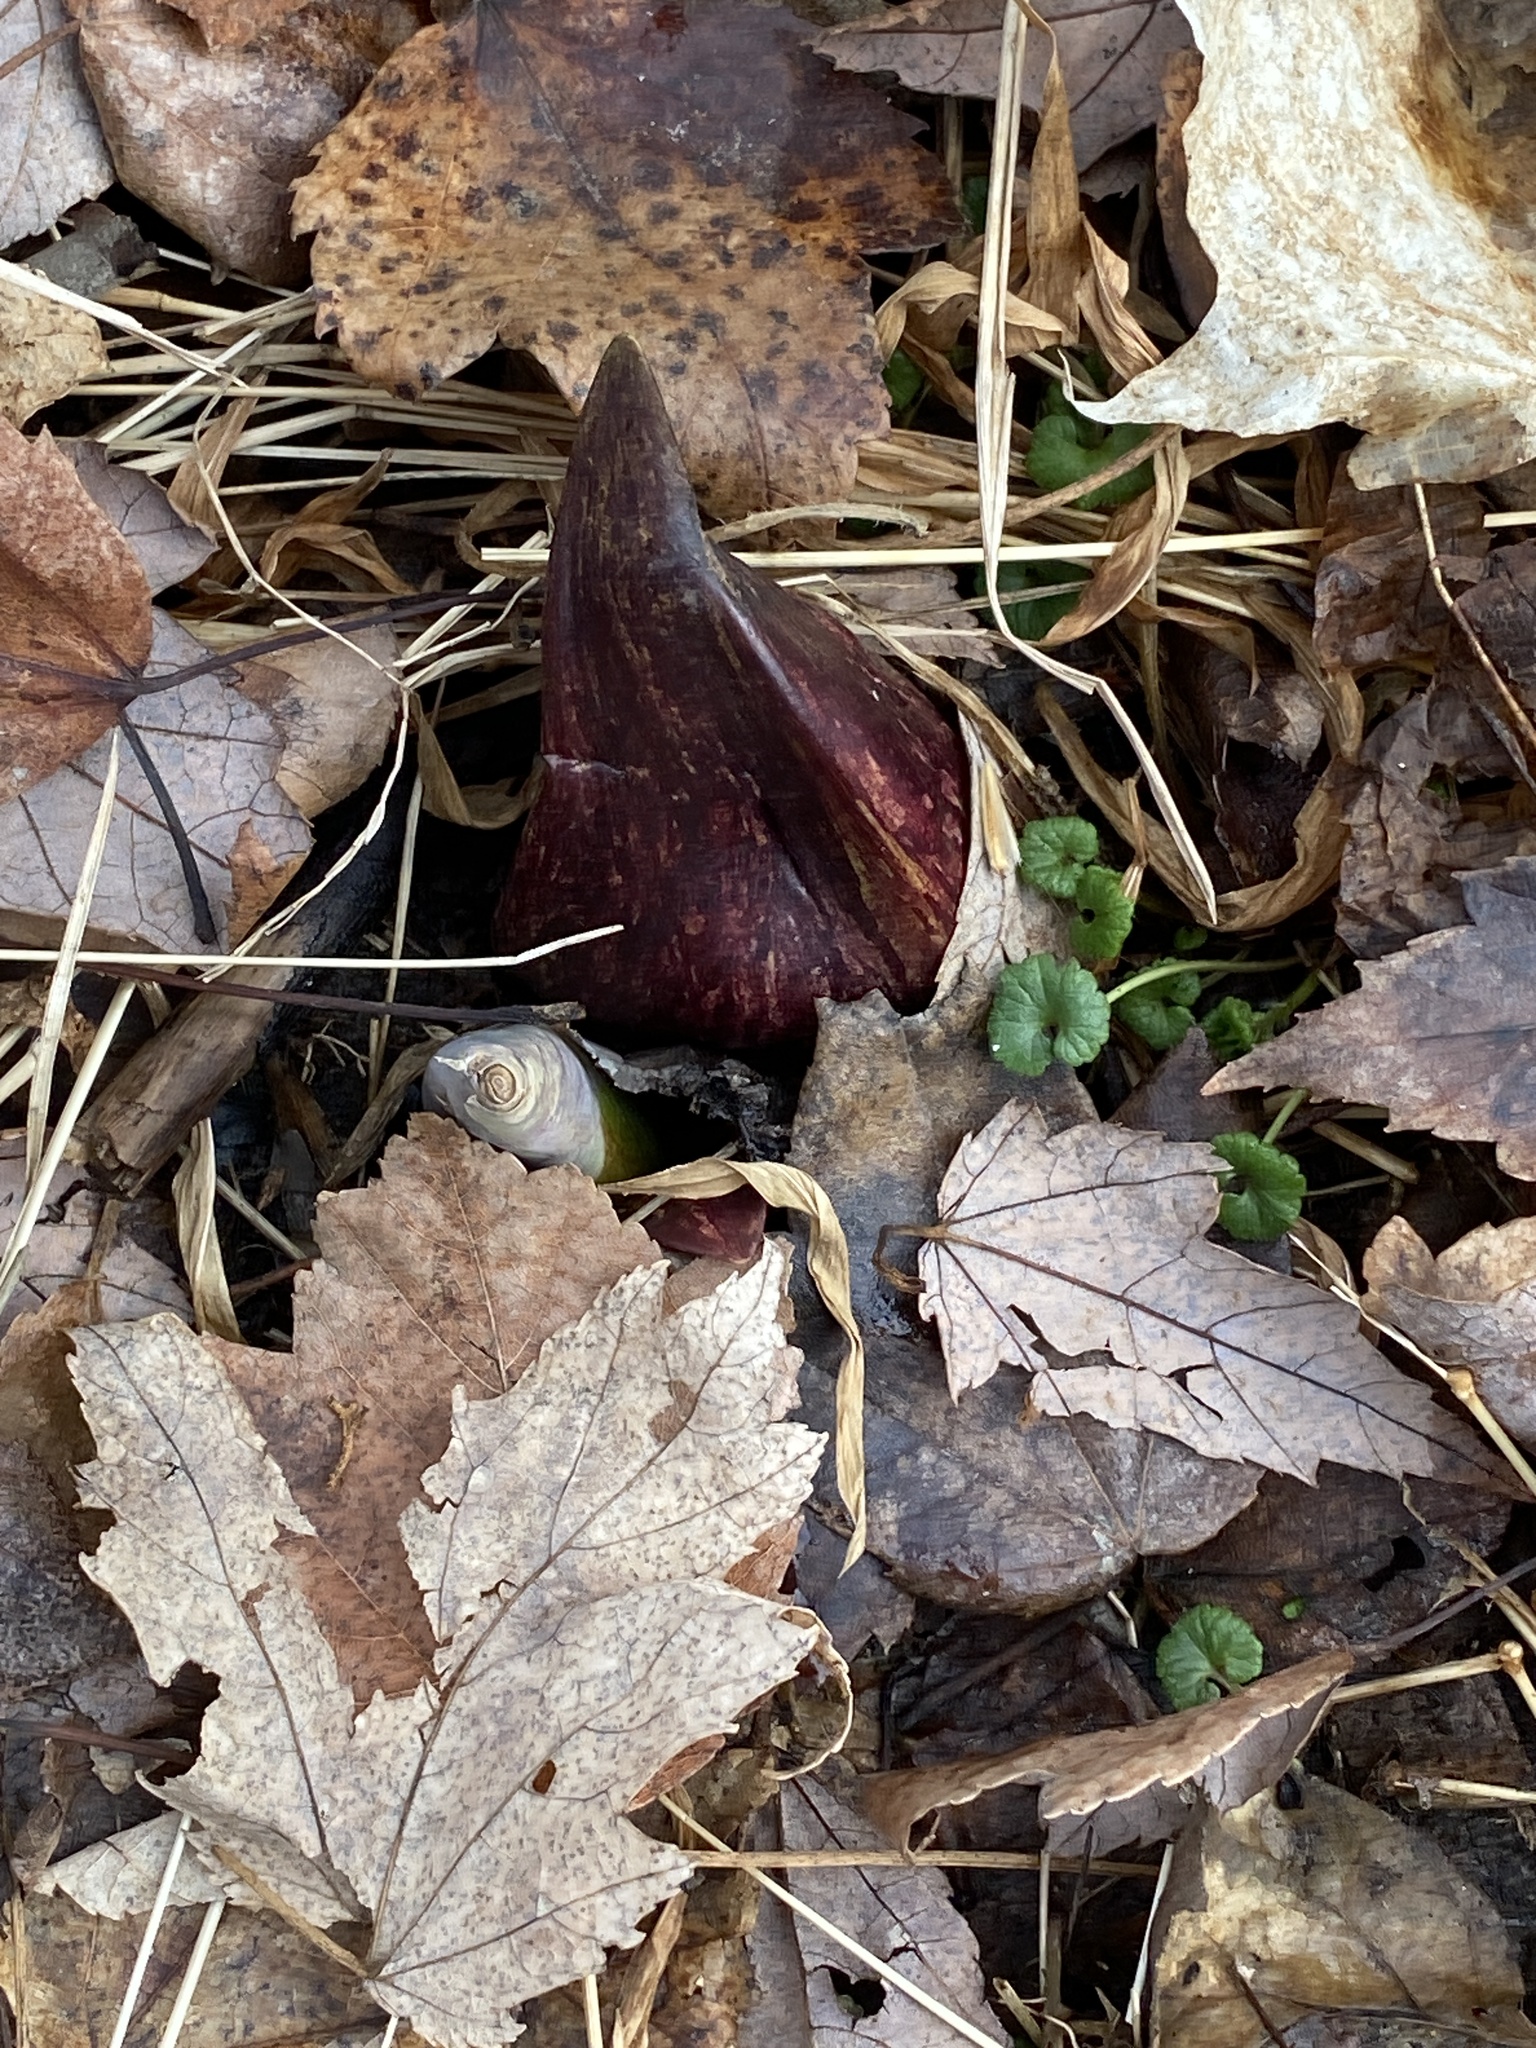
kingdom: Plantae
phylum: Tracheophyta
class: Liliopsida
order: Alismatales
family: Araceae
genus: Symplocarpus
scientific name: Symplocarpus foetidus
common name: Eastern skunk cabbage
